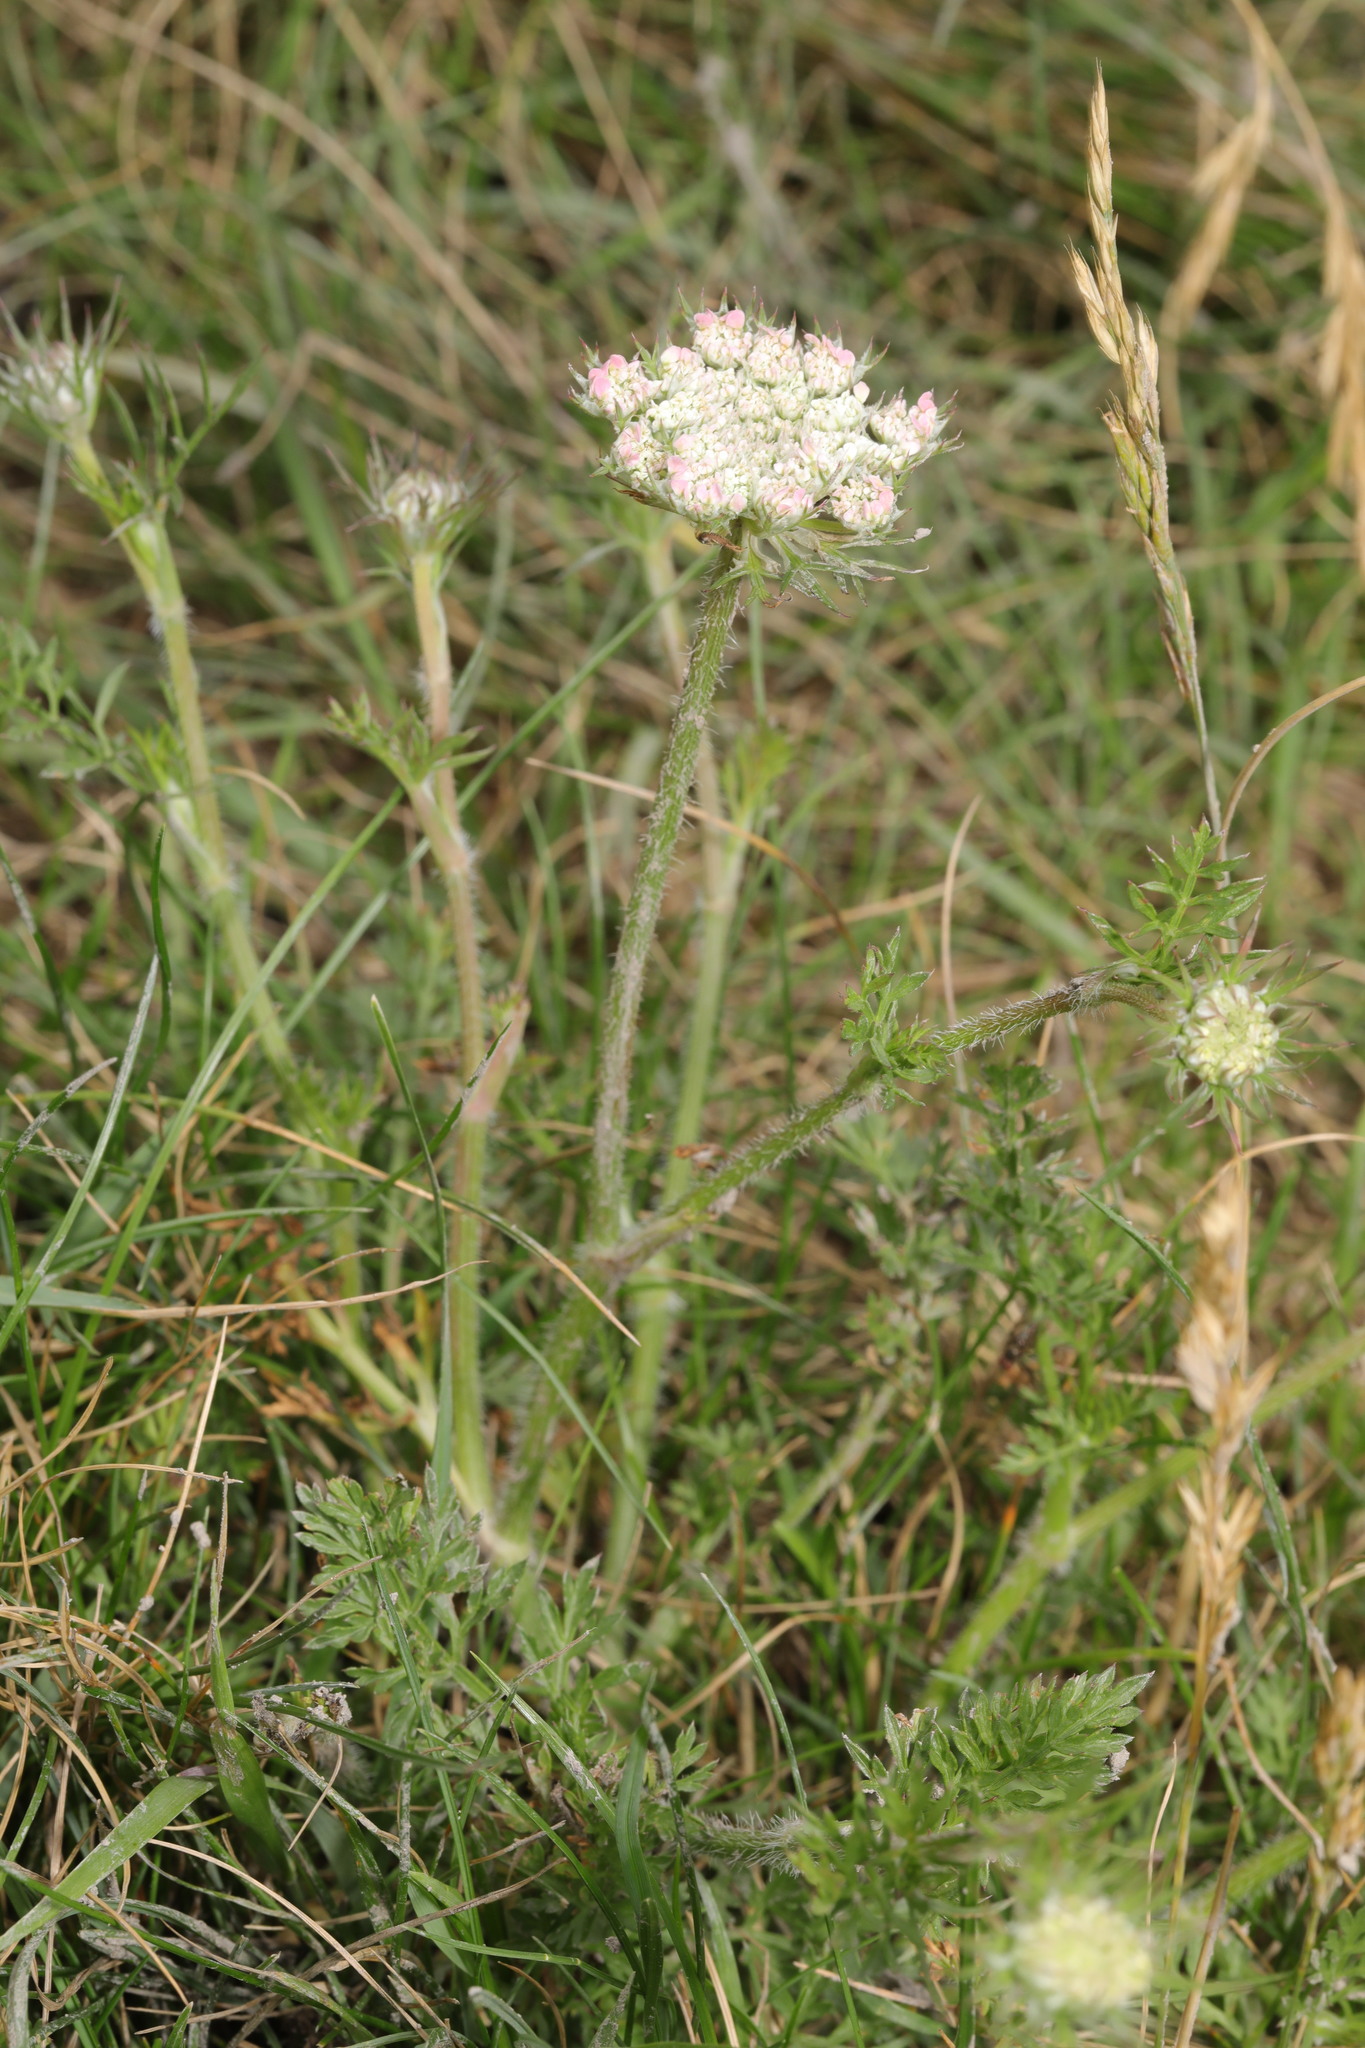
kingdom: Plantae
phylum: Tracheophyta
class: Magnoliopsida
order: Apiales
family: Apiaceae
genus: Daucus
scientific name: Daucus carota
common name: Wild carrot
